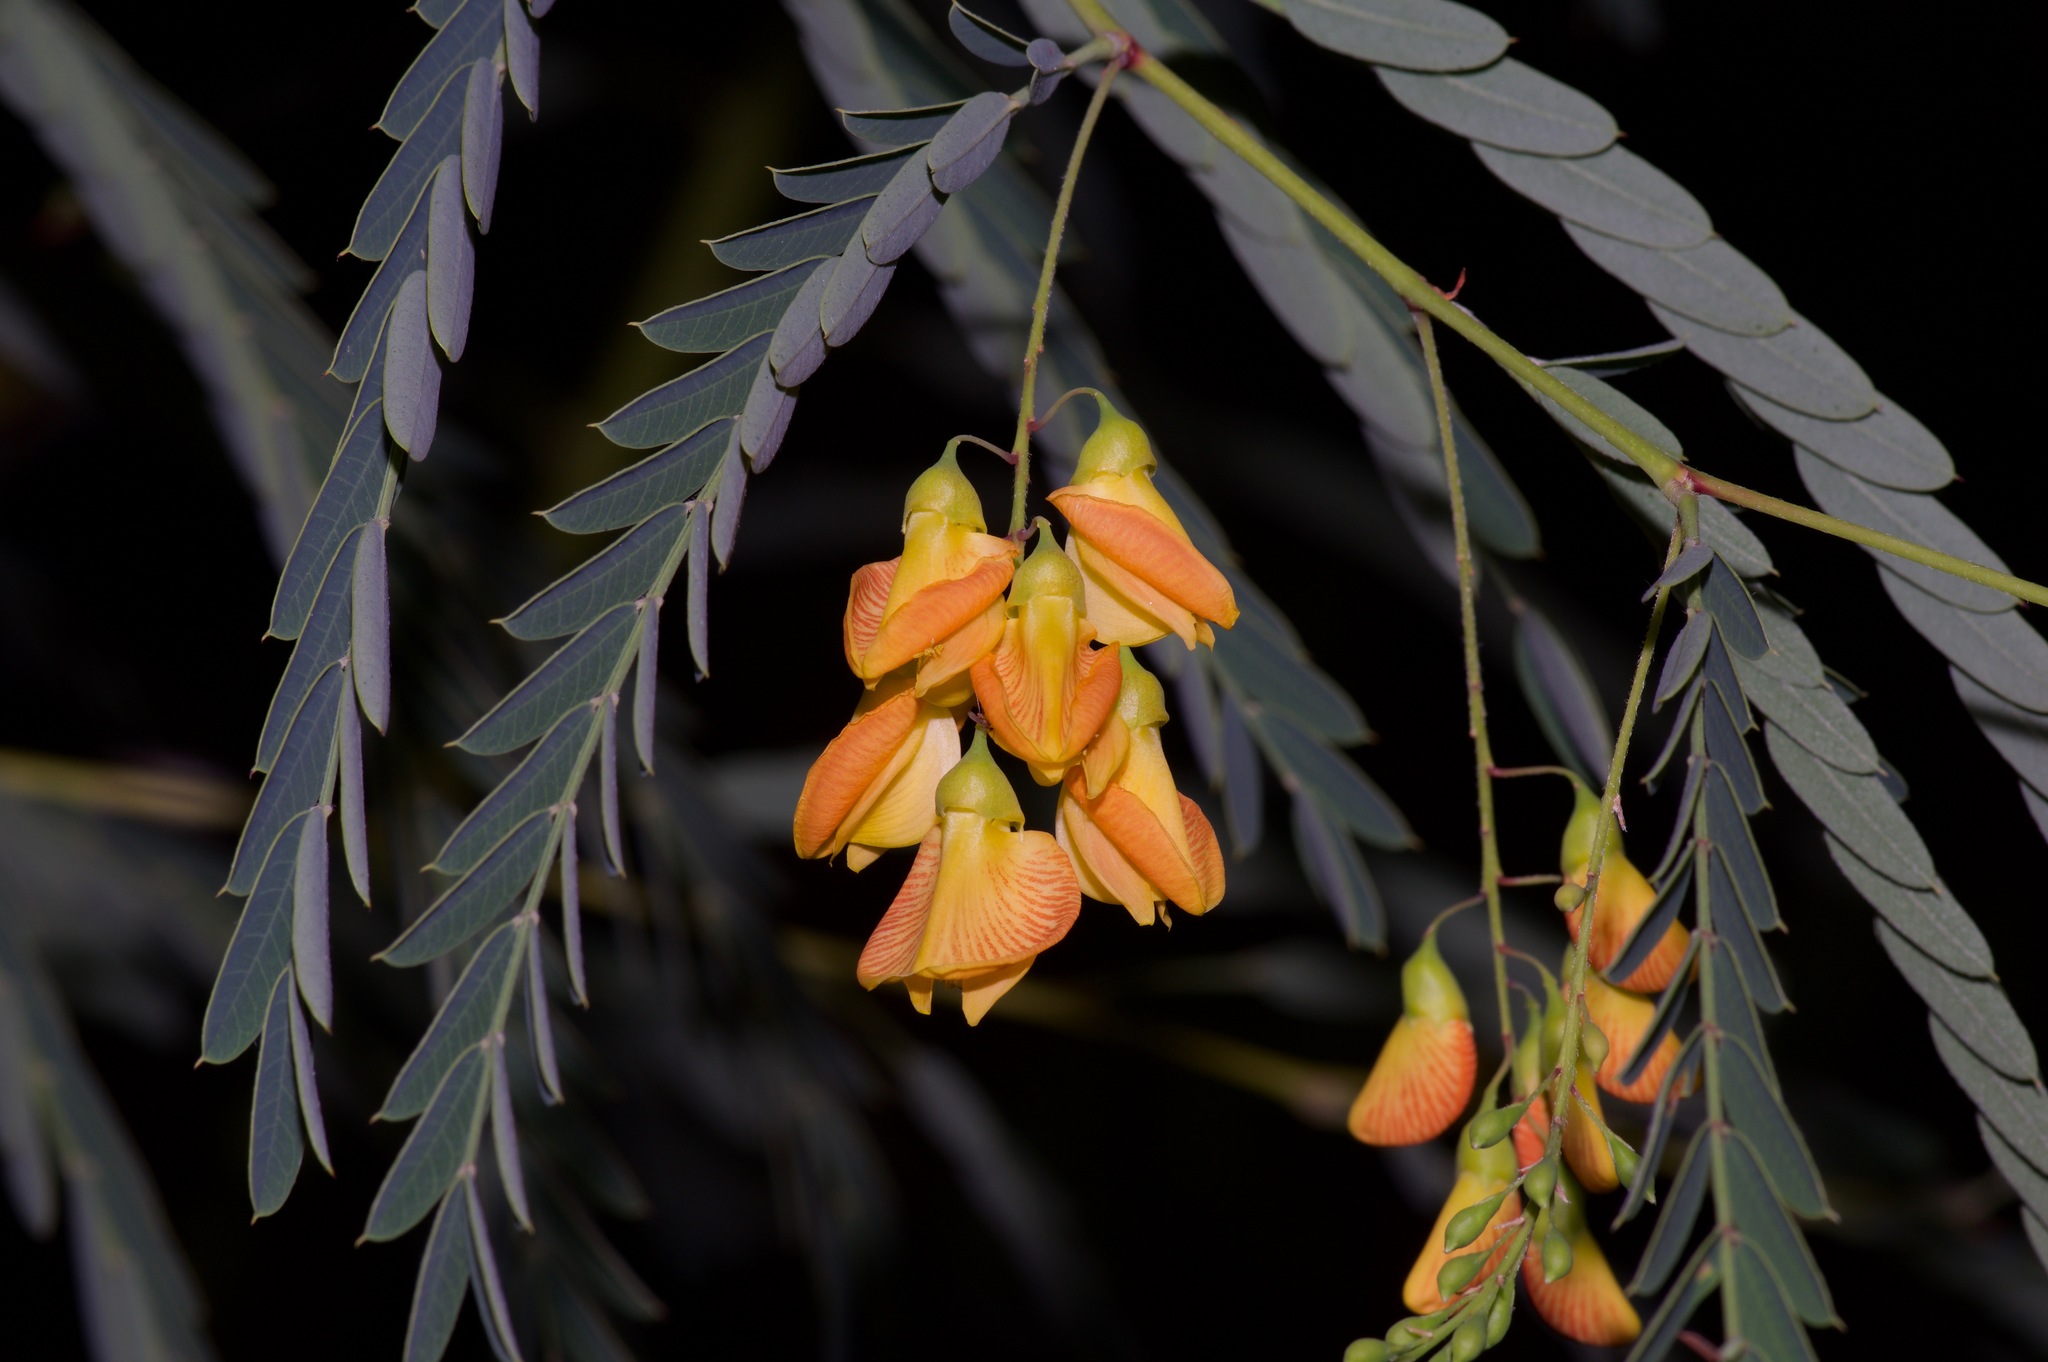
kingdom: Plantae
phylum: Tracheophyta
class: Magnoliopsida
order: Fabales
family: Fabaceae
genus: Sesbania
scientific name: Sesbania drummondii
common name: Poison-bean
